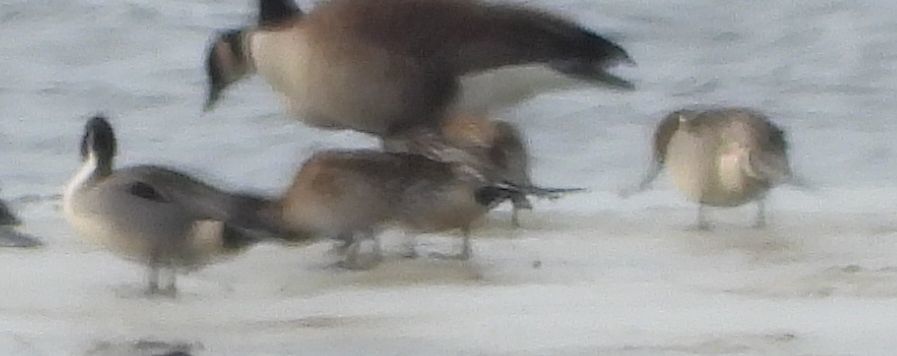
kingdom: Animalia
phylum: Chordata
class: Aves
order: Anseriformes
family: Anatidae
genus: Anas
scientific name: Anas acuta
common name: Northern pintail
